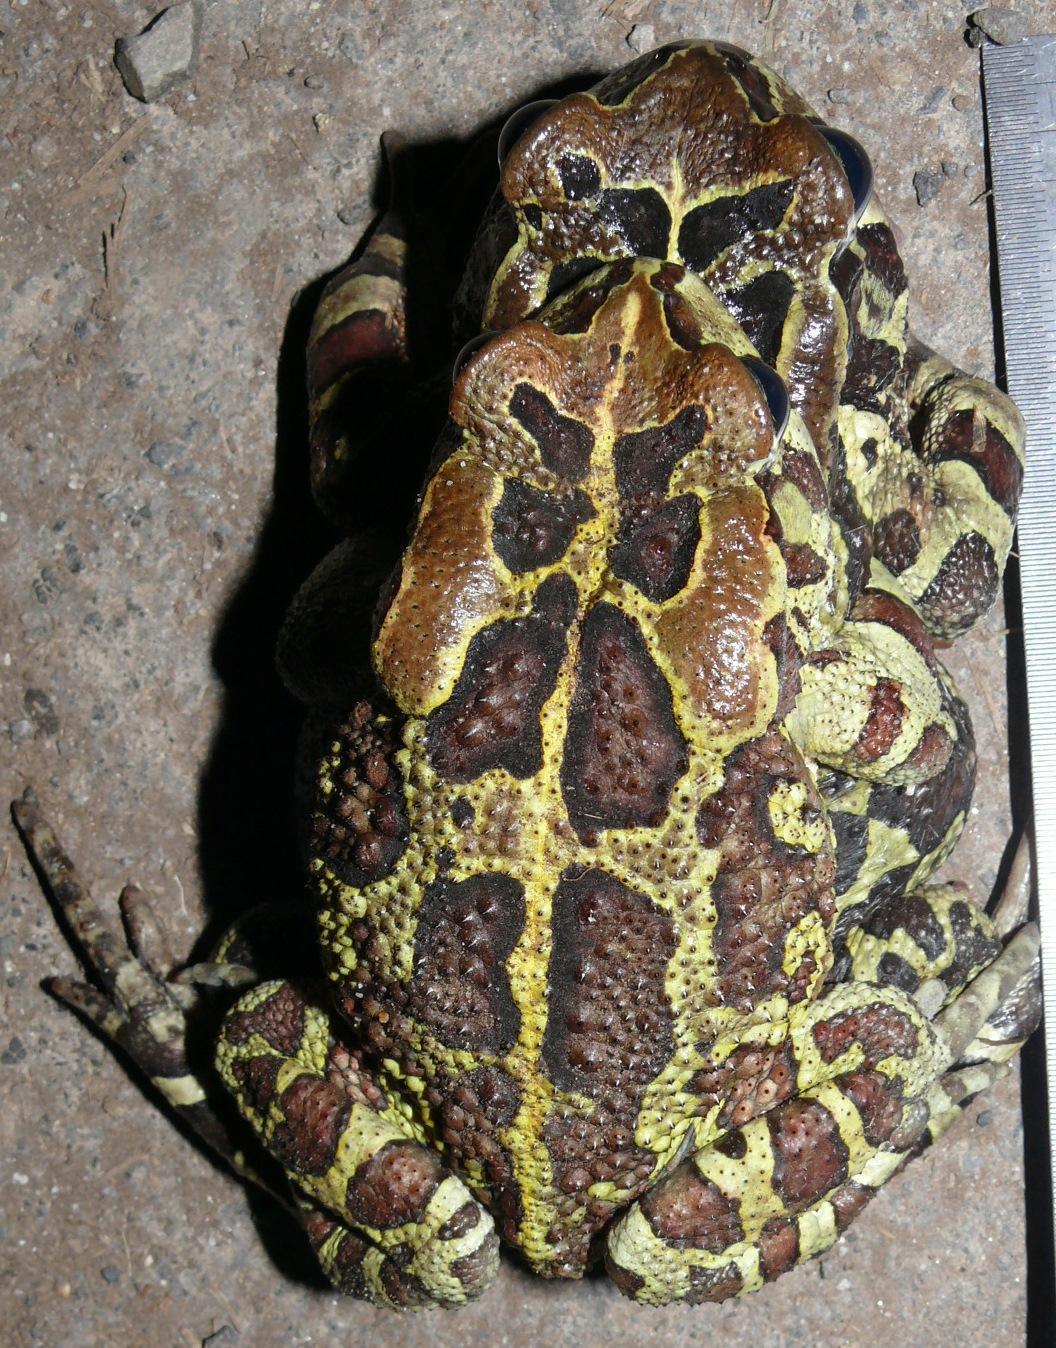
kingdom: Animalia
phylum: Chordata
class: Amphibia
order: Anura
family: Bufonidae
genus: Sclerophrys
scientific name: Sclerophrys pantherina
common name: Panther toad
